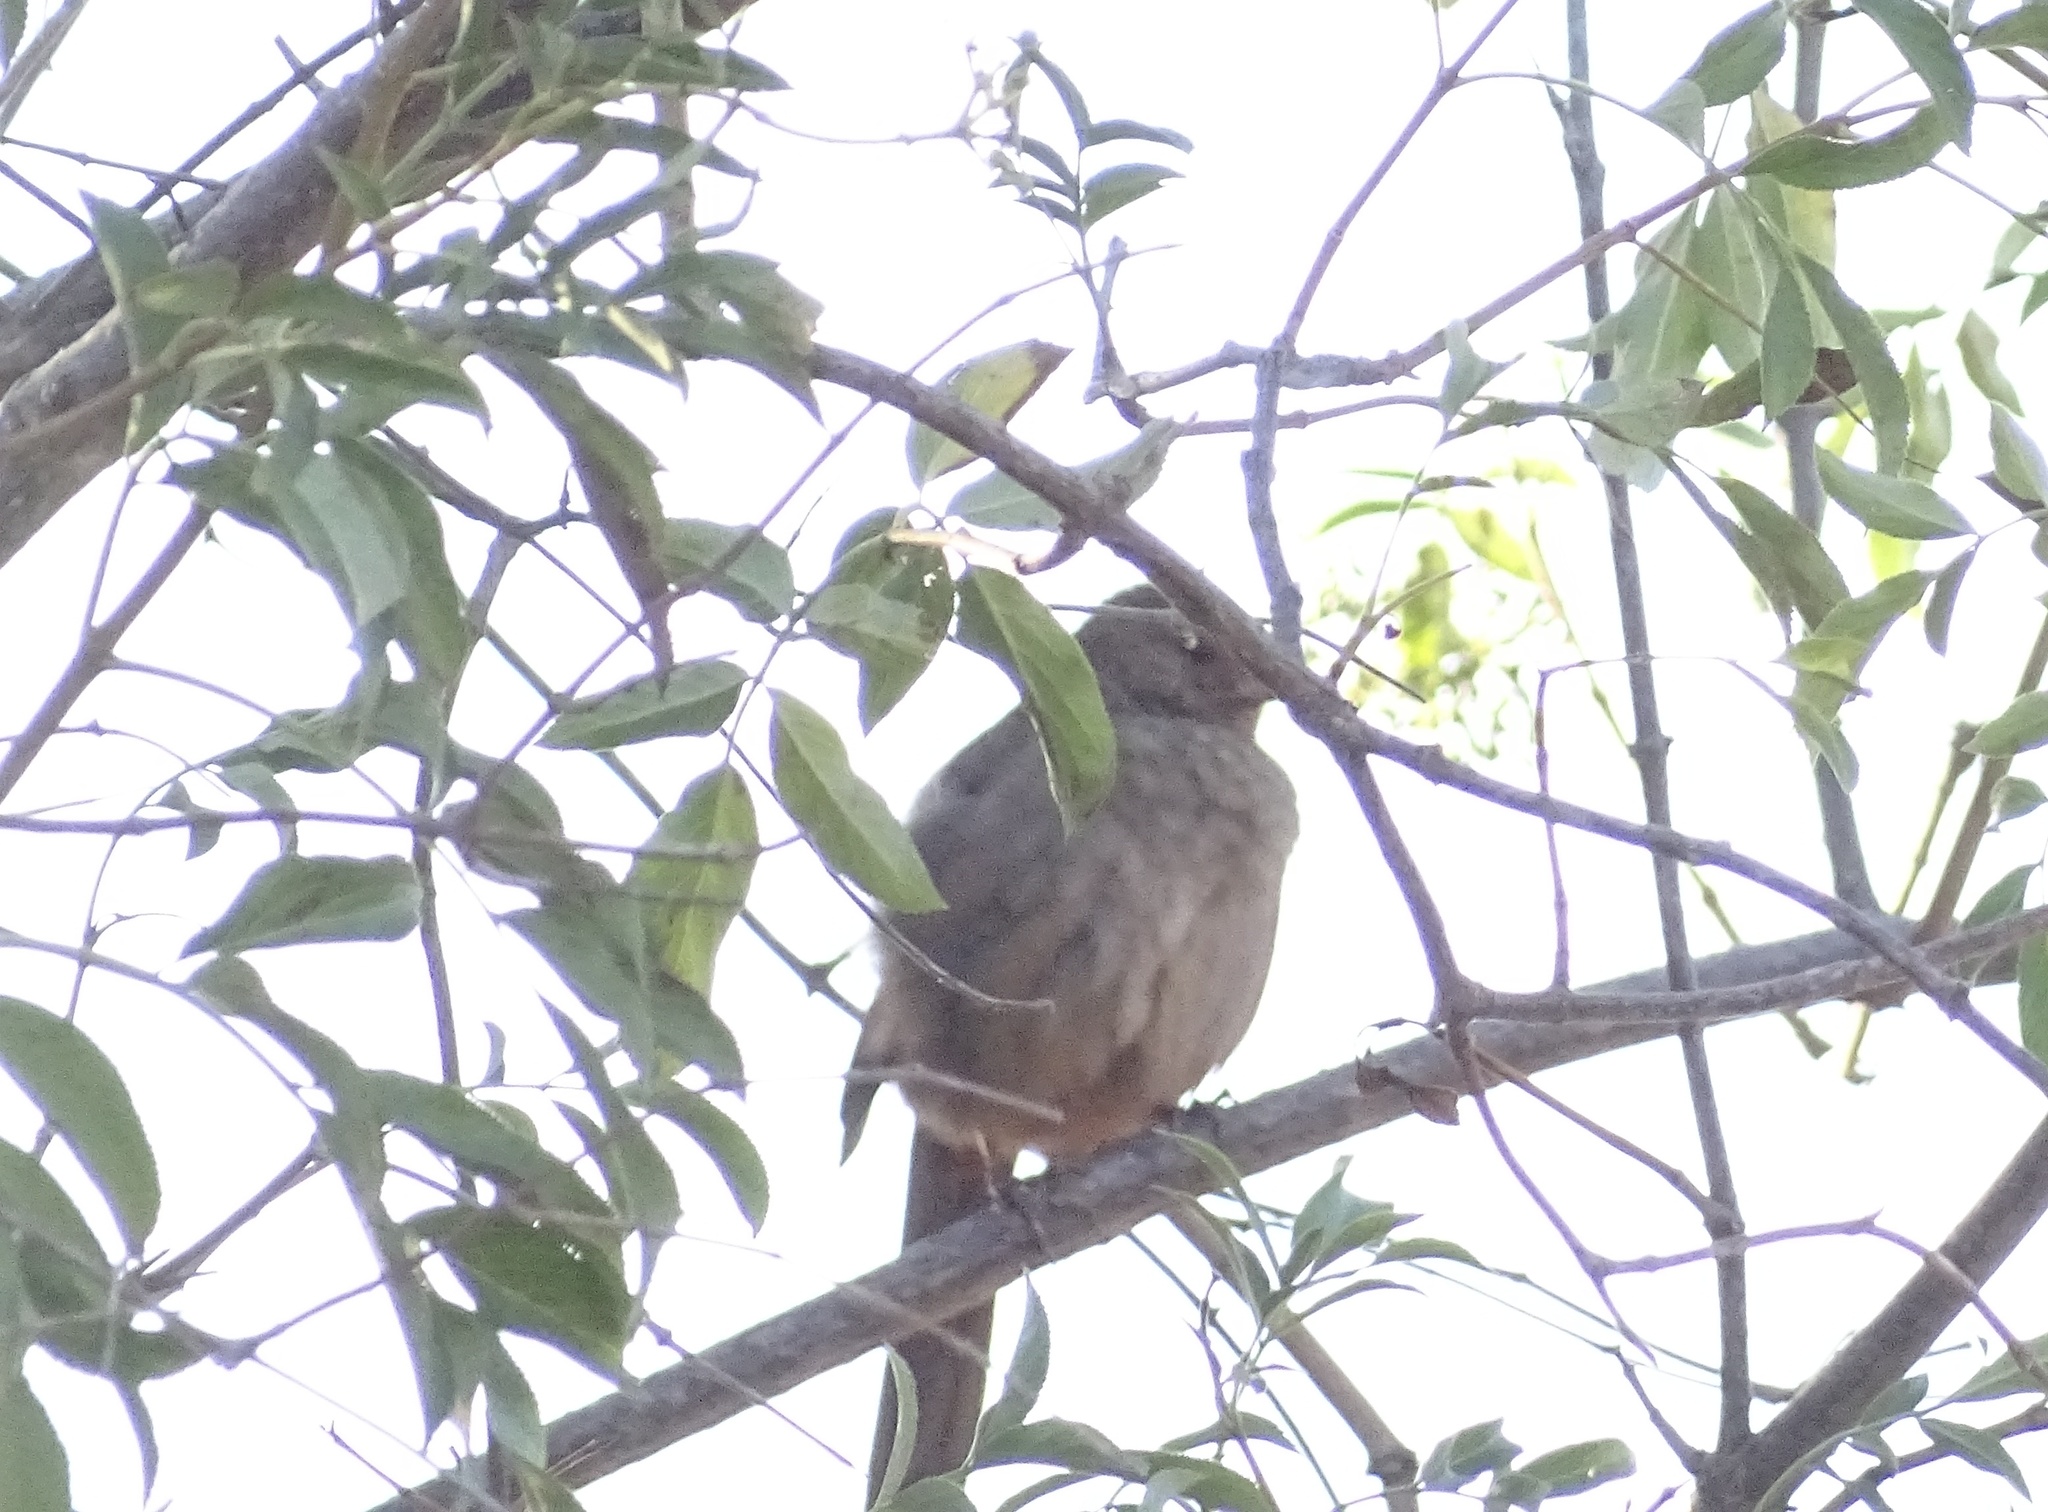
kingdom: Animalia
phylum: Chordata
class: Aves
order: Passeriformes
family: Passerellidae
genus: Melozone
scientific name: Melozone crissalis
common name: California towhee
